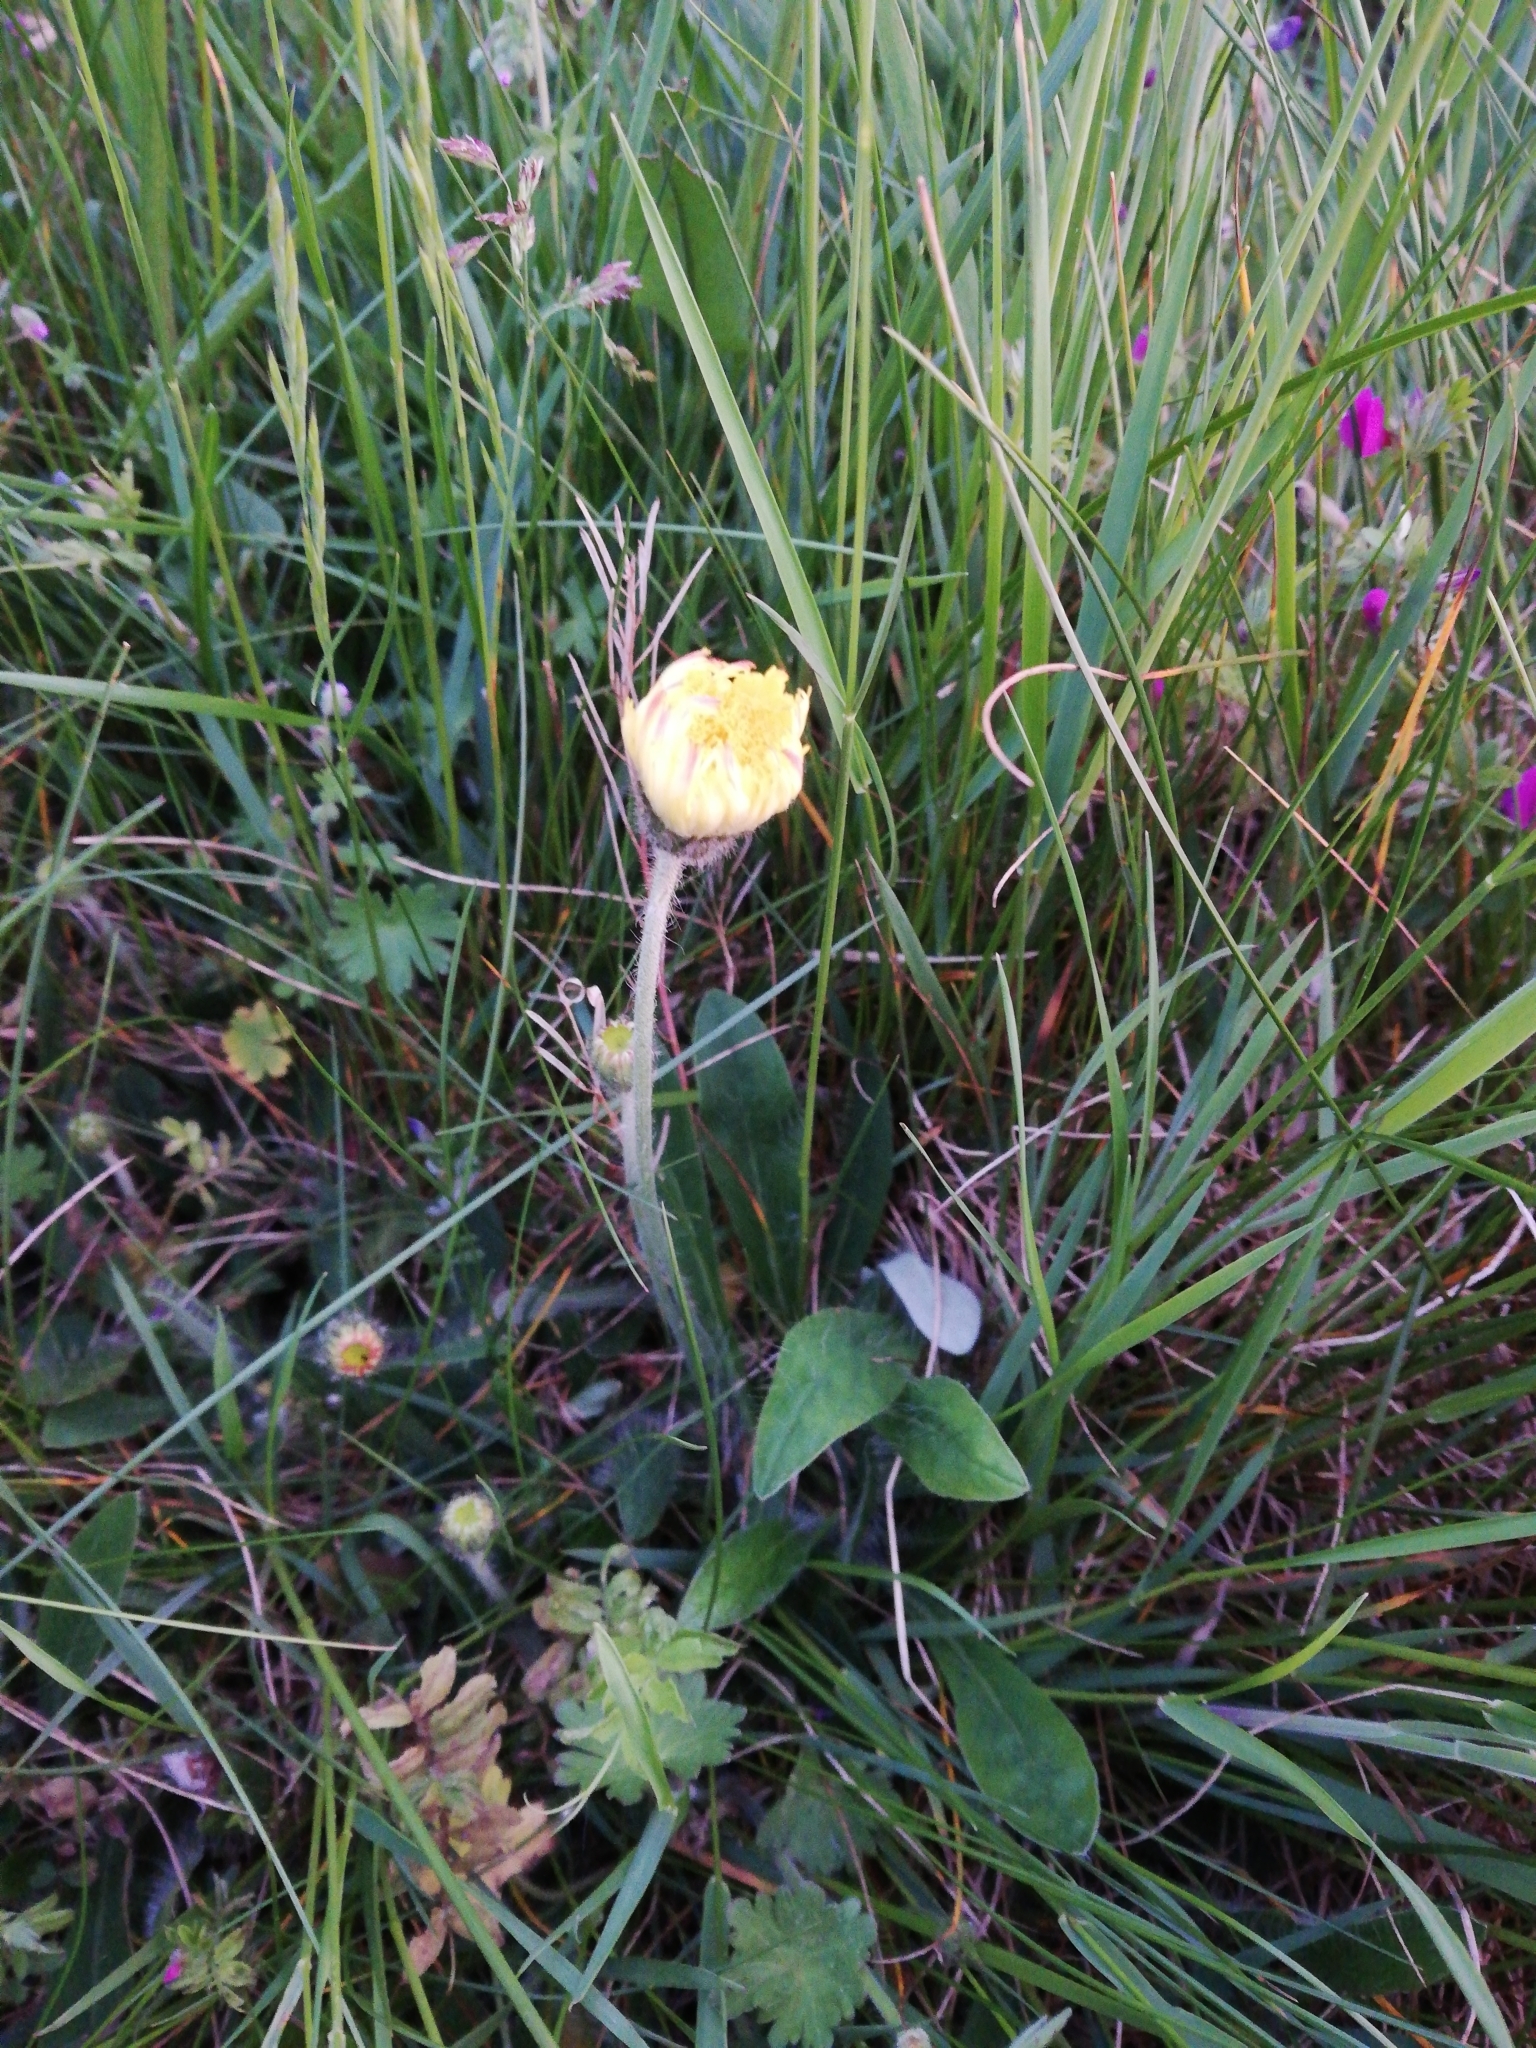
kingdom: Plantae
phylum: Tracheophyta
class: Magnoliopsida
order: Asterales
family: Asteraceae
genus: Pilosella
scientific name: Pilosella officinarum
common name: Mouse-ear hawkweed
